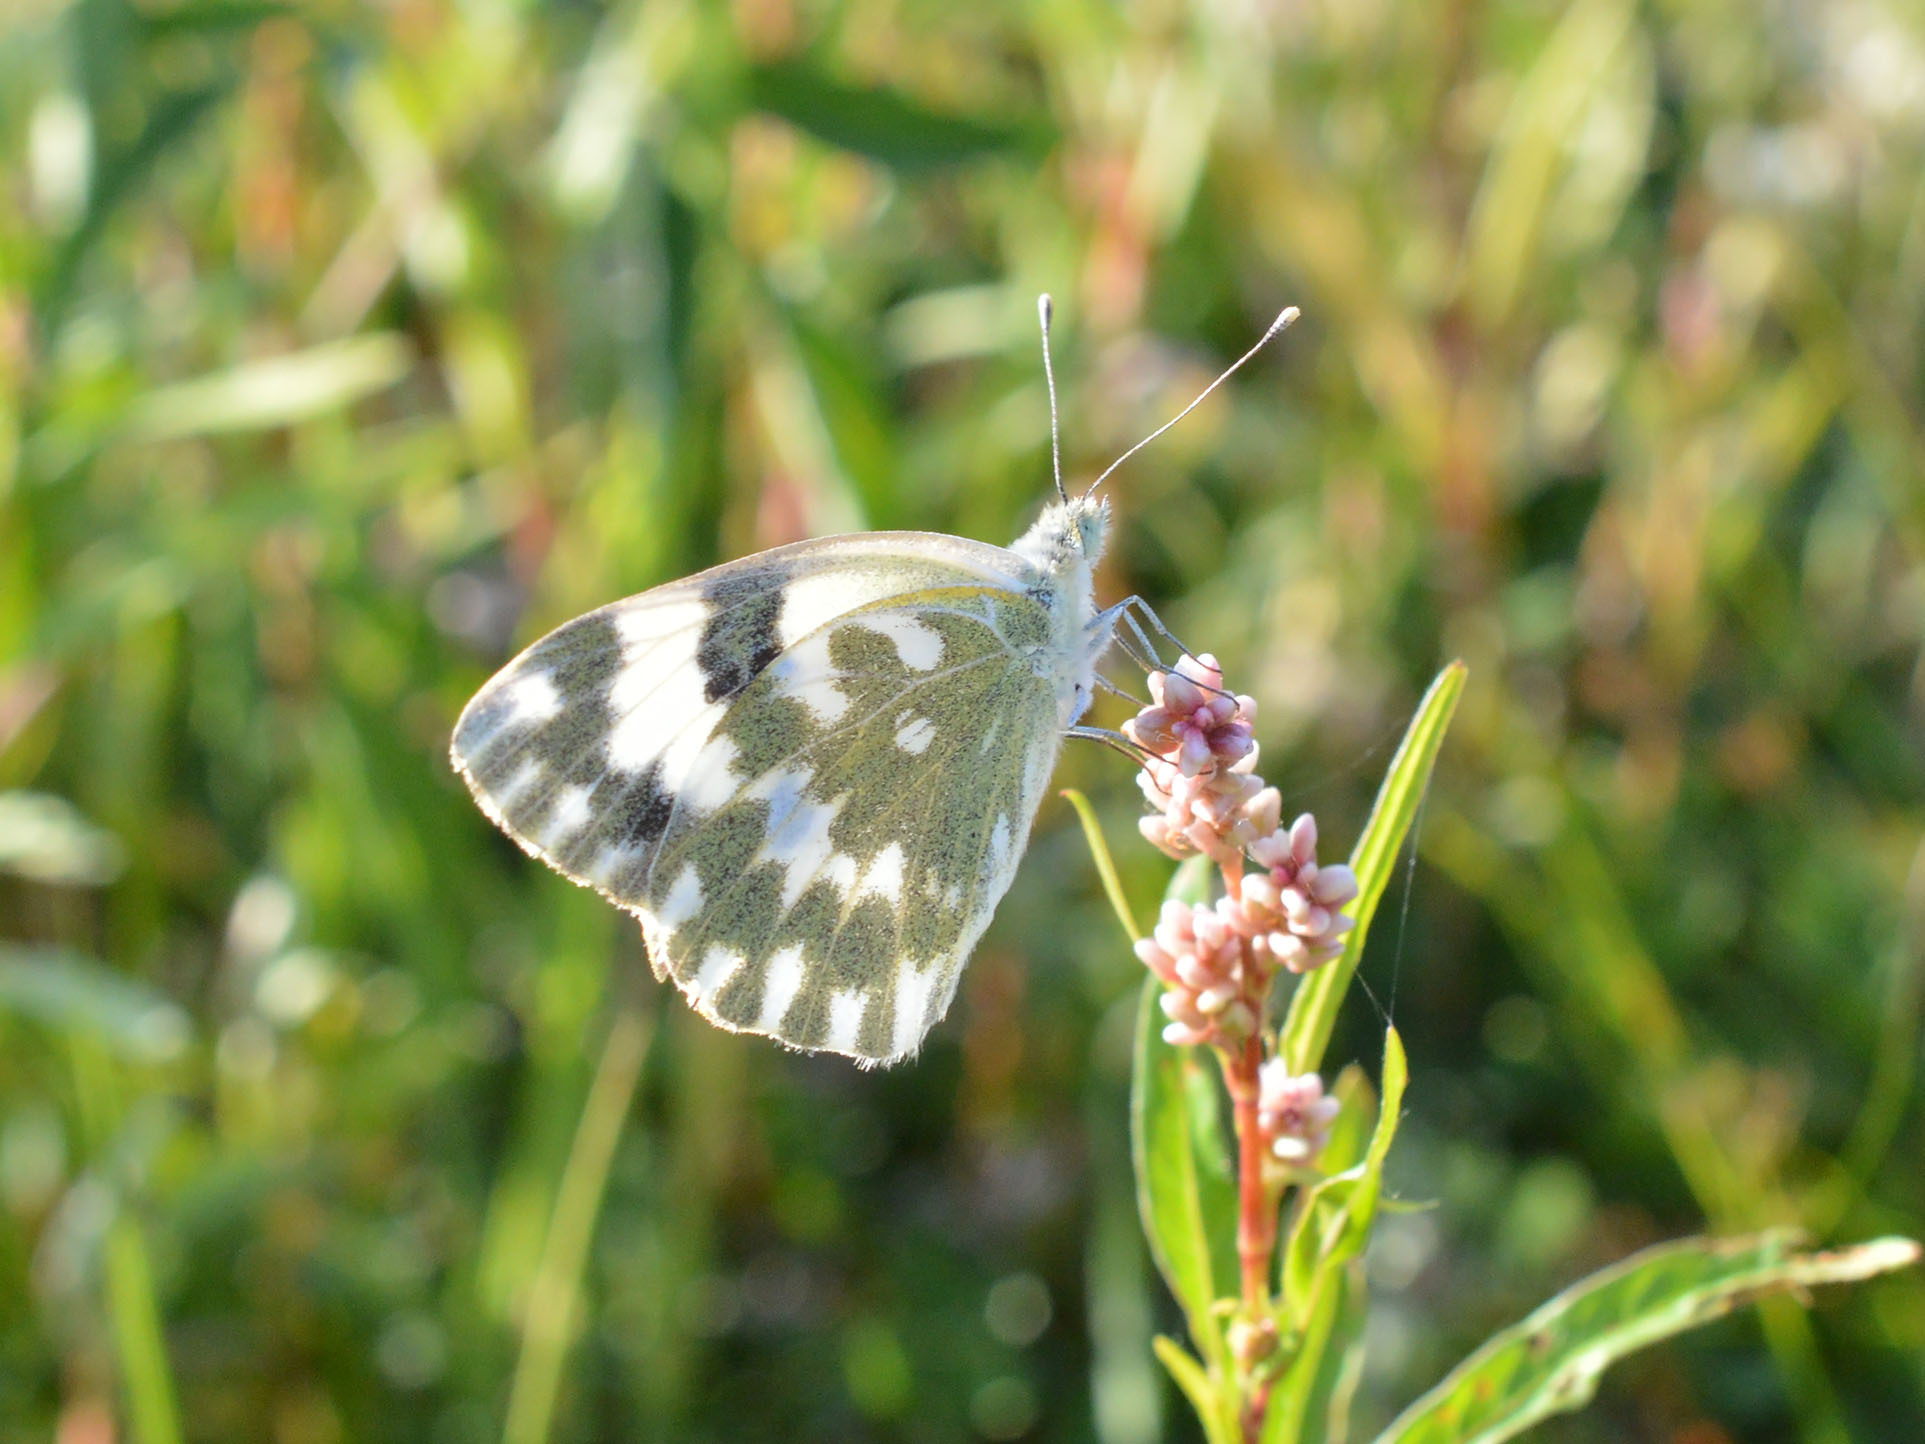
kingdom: Animalia
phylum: Arthropoda
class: Insecta
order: Lepidoptera
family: Pieridae
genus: Pontia
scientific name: Pontia edusa
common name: Eastern bath white
